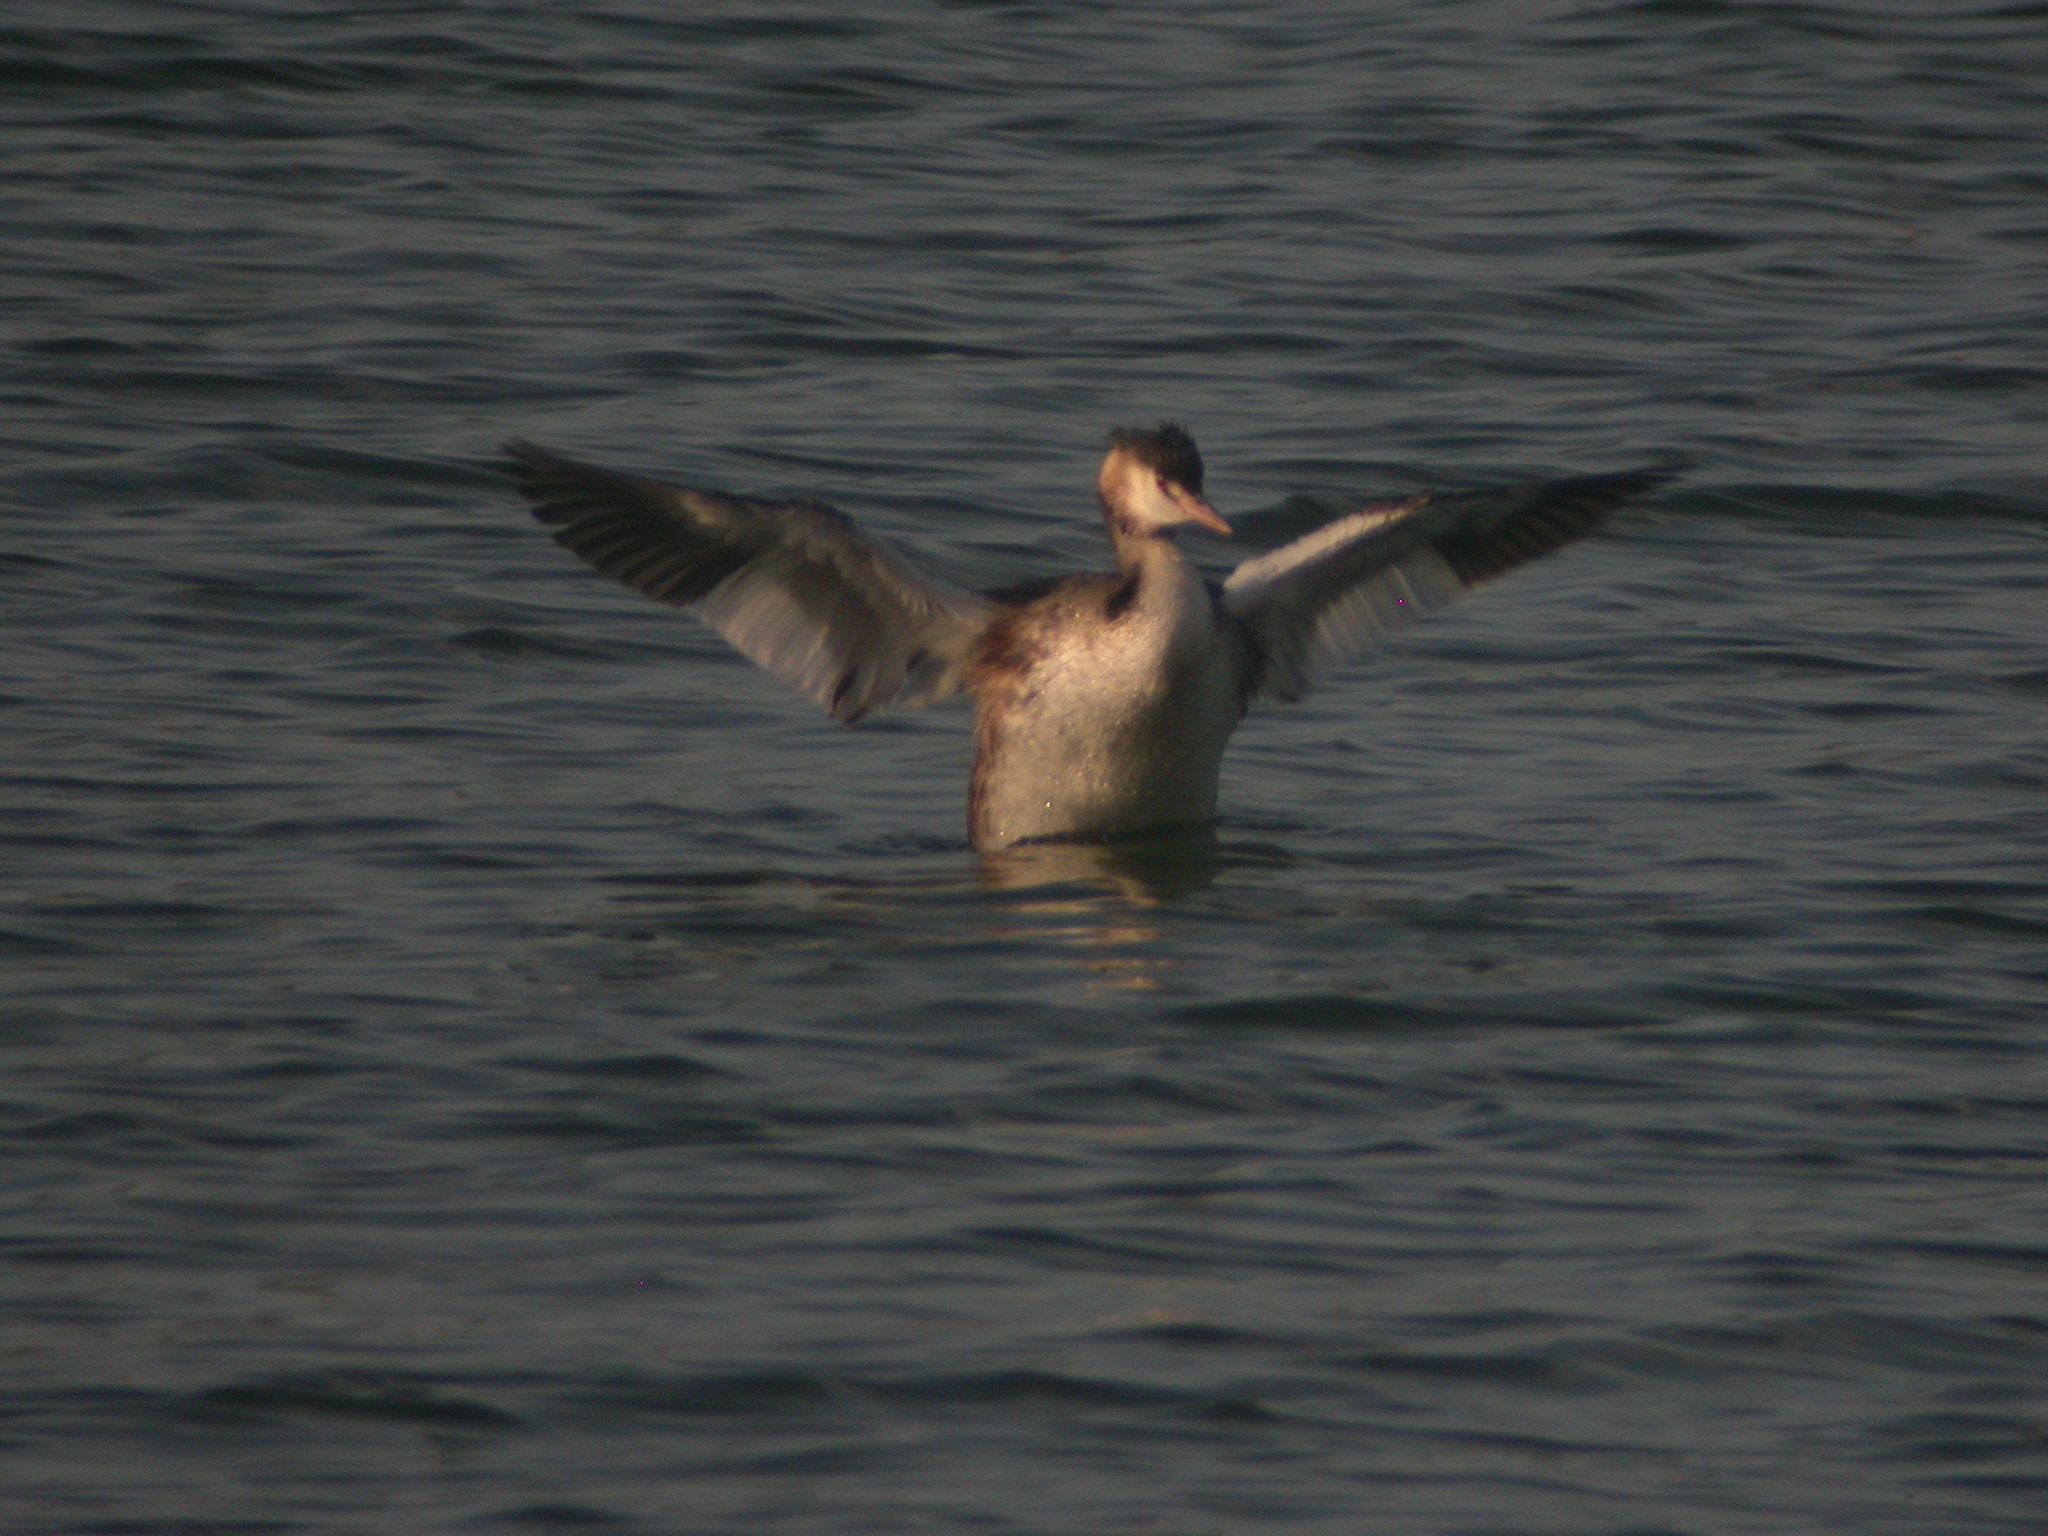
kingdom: Animalia
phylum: Chordata
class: Aves
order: Podicipediformes
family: Podicipedidae
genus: Podiceps
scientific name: Podiceps cristatus
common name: Great crested grebe
